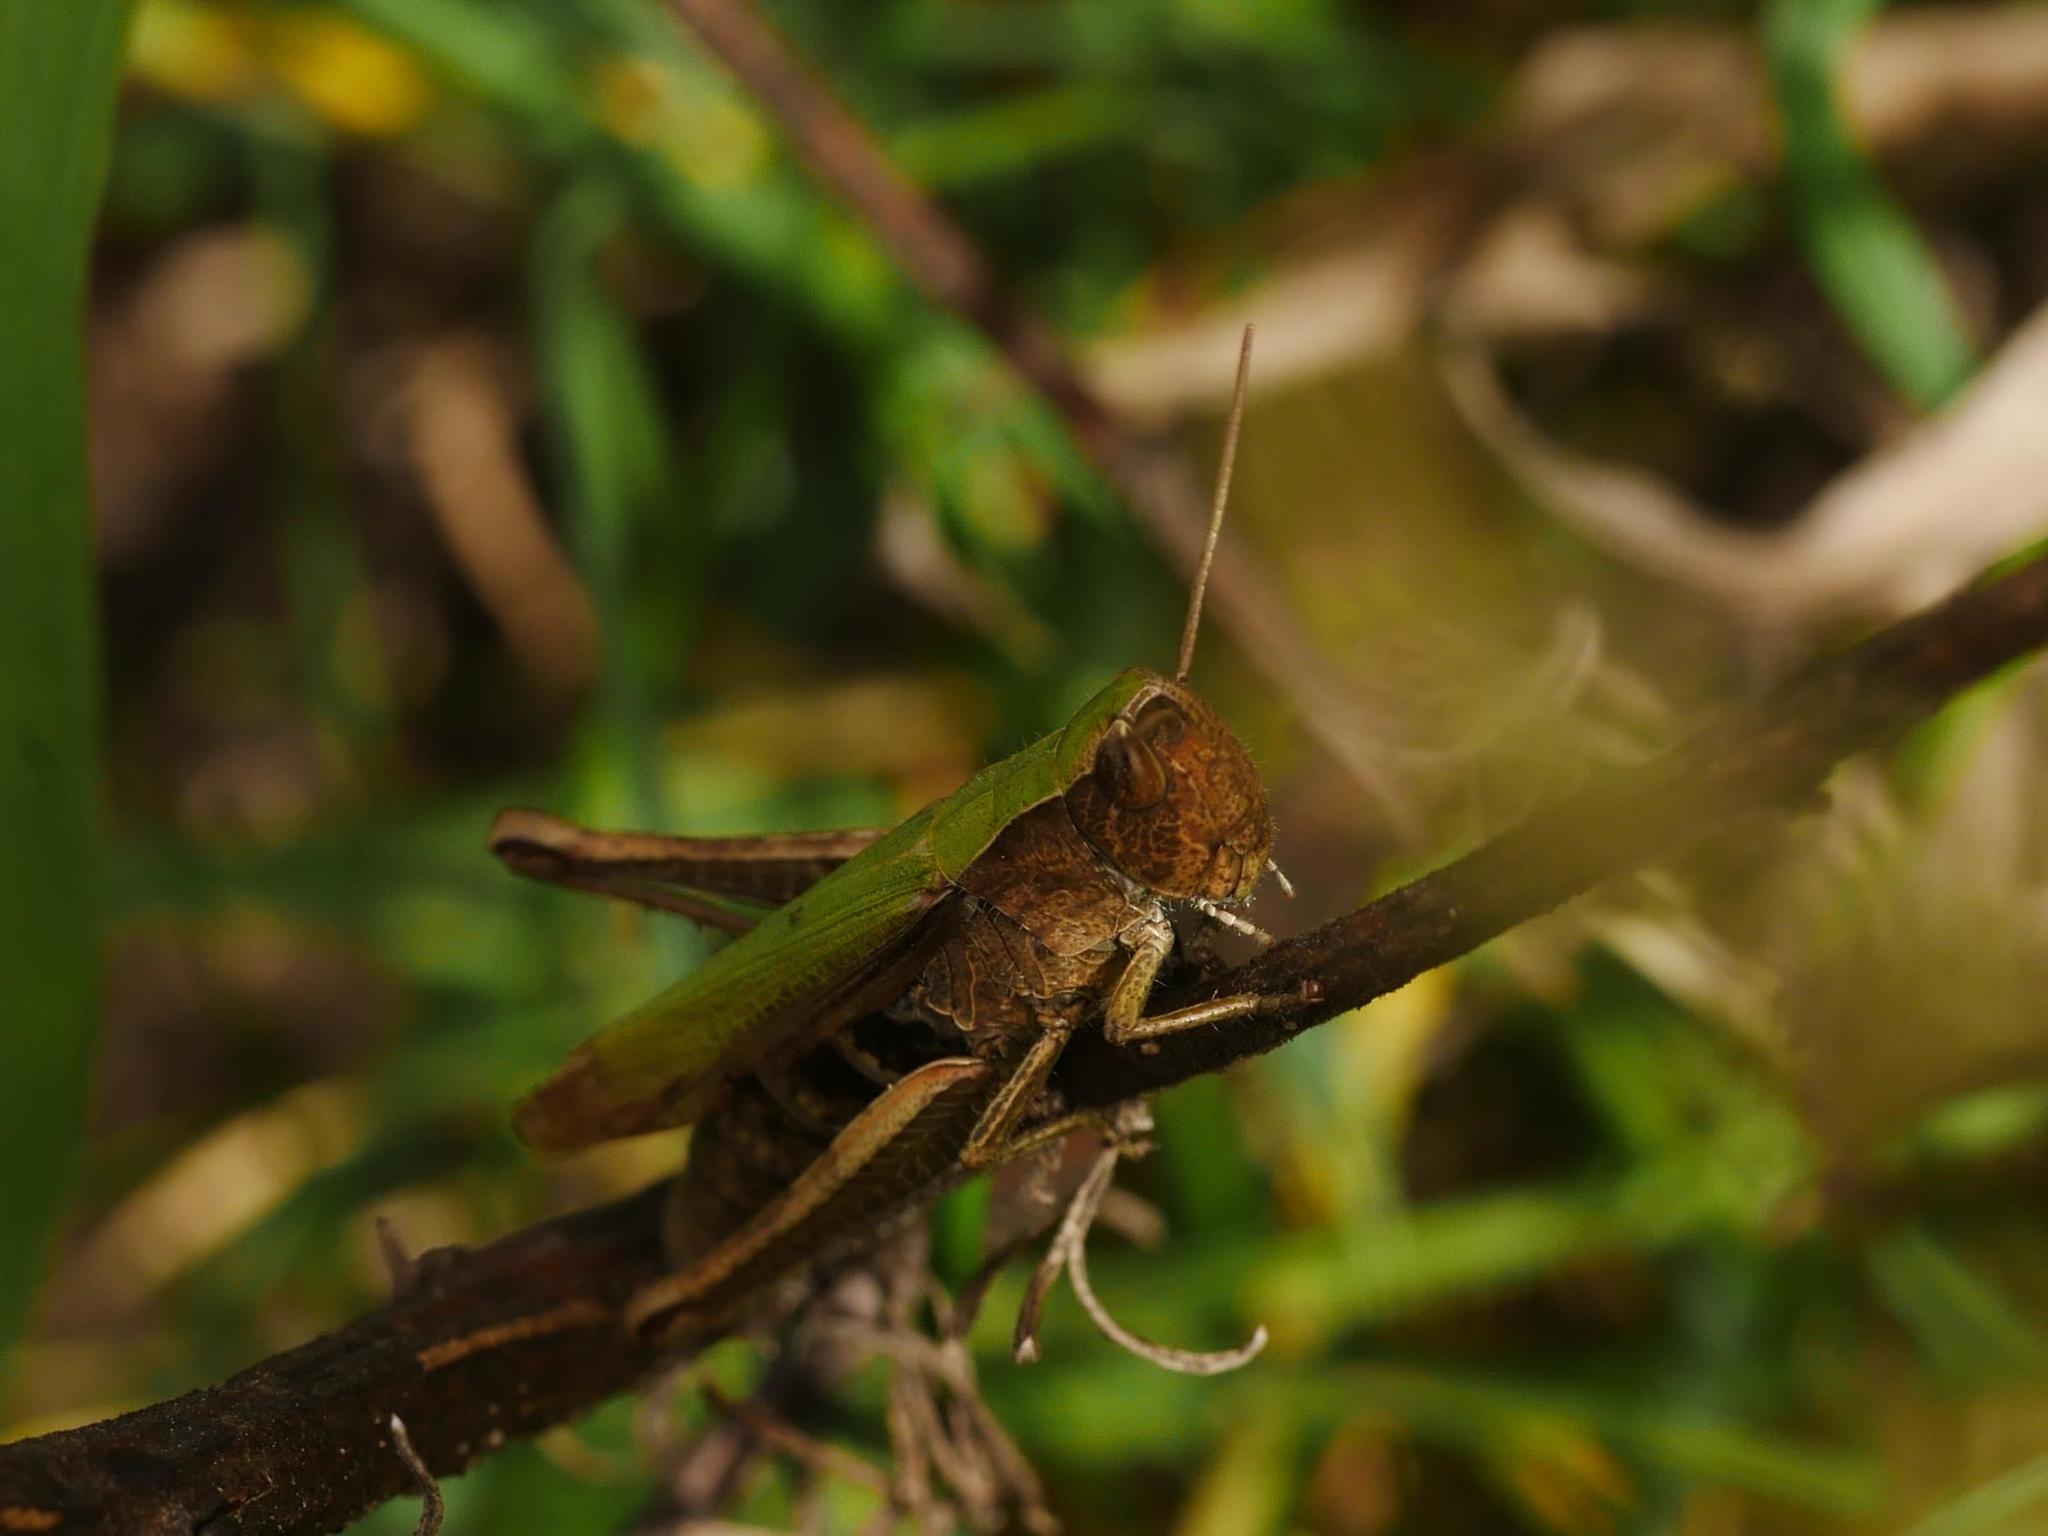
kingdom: Animalia
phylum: Arthropoda
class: Insecta
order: Orthoptera
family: Acrididae
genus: Chorthippus
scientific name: Chorthippus dorsatus
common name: Steppe grasshopper
